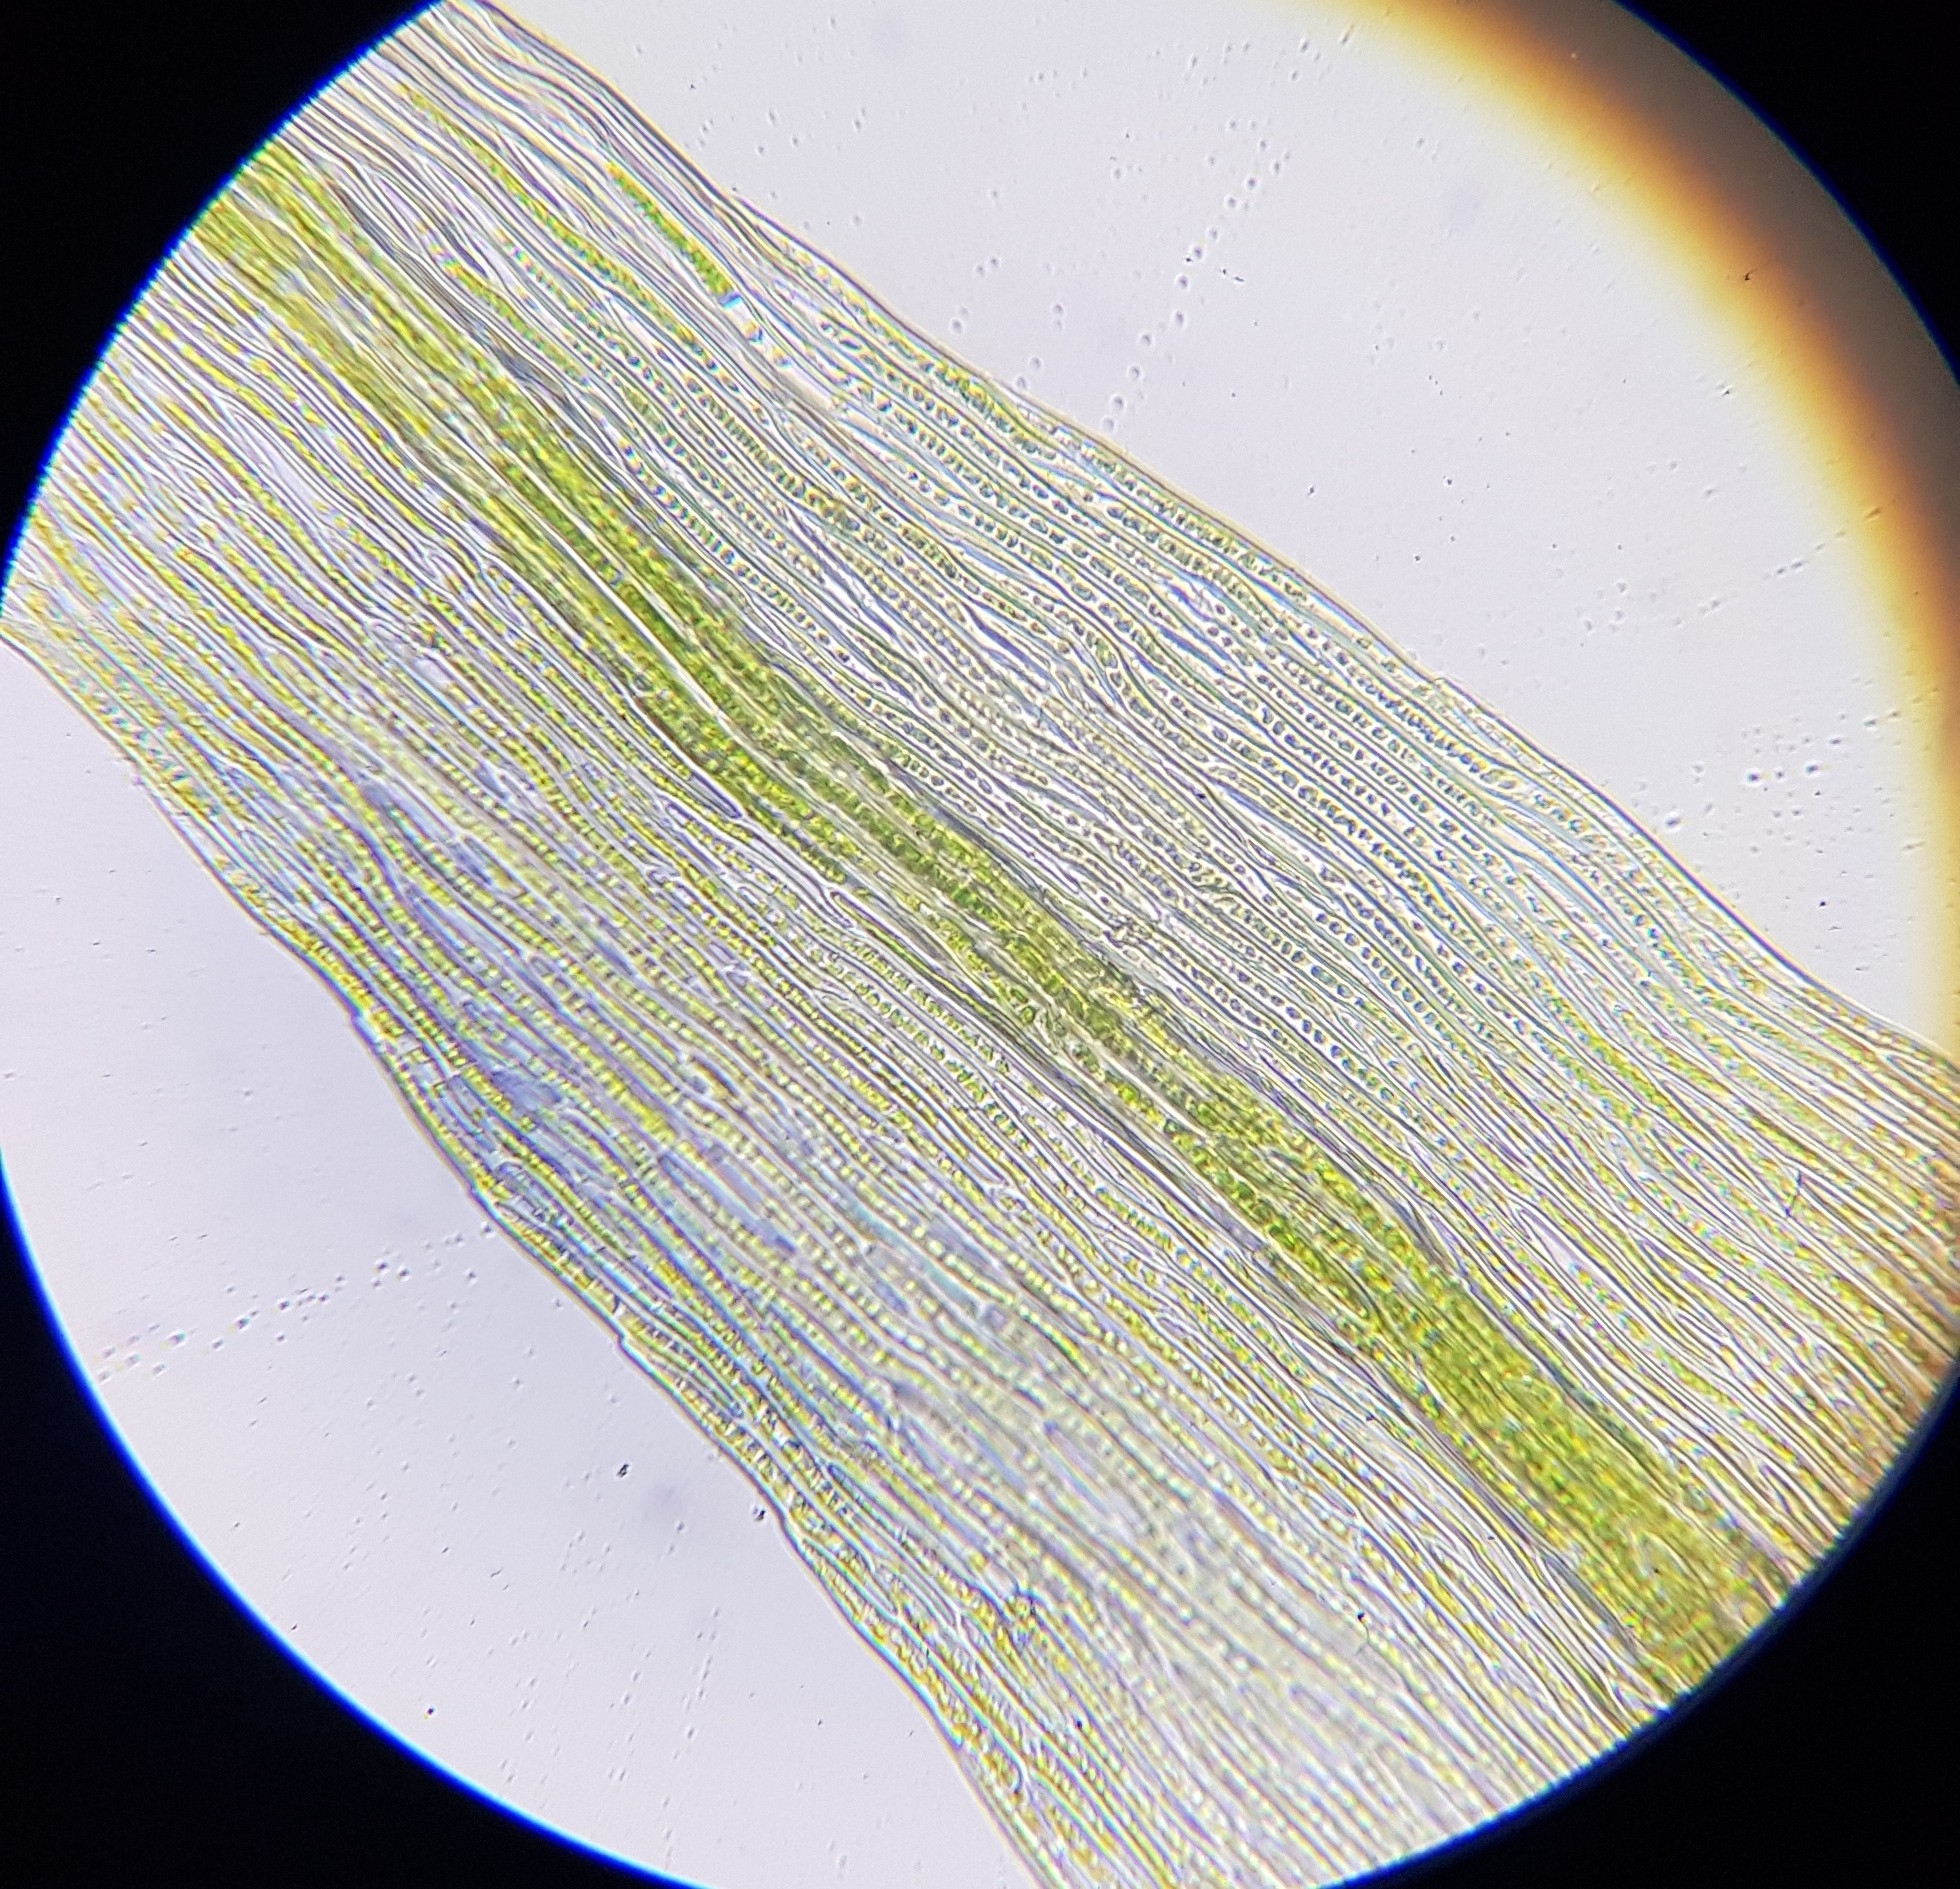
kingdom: Plantae
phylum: Bryophyta
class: Bryopsida
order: Hypnales
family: Brachytheciaceae
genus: Rhynchostegiella
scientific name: Rhynchostegiella tenella
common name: Tender feather-moss
